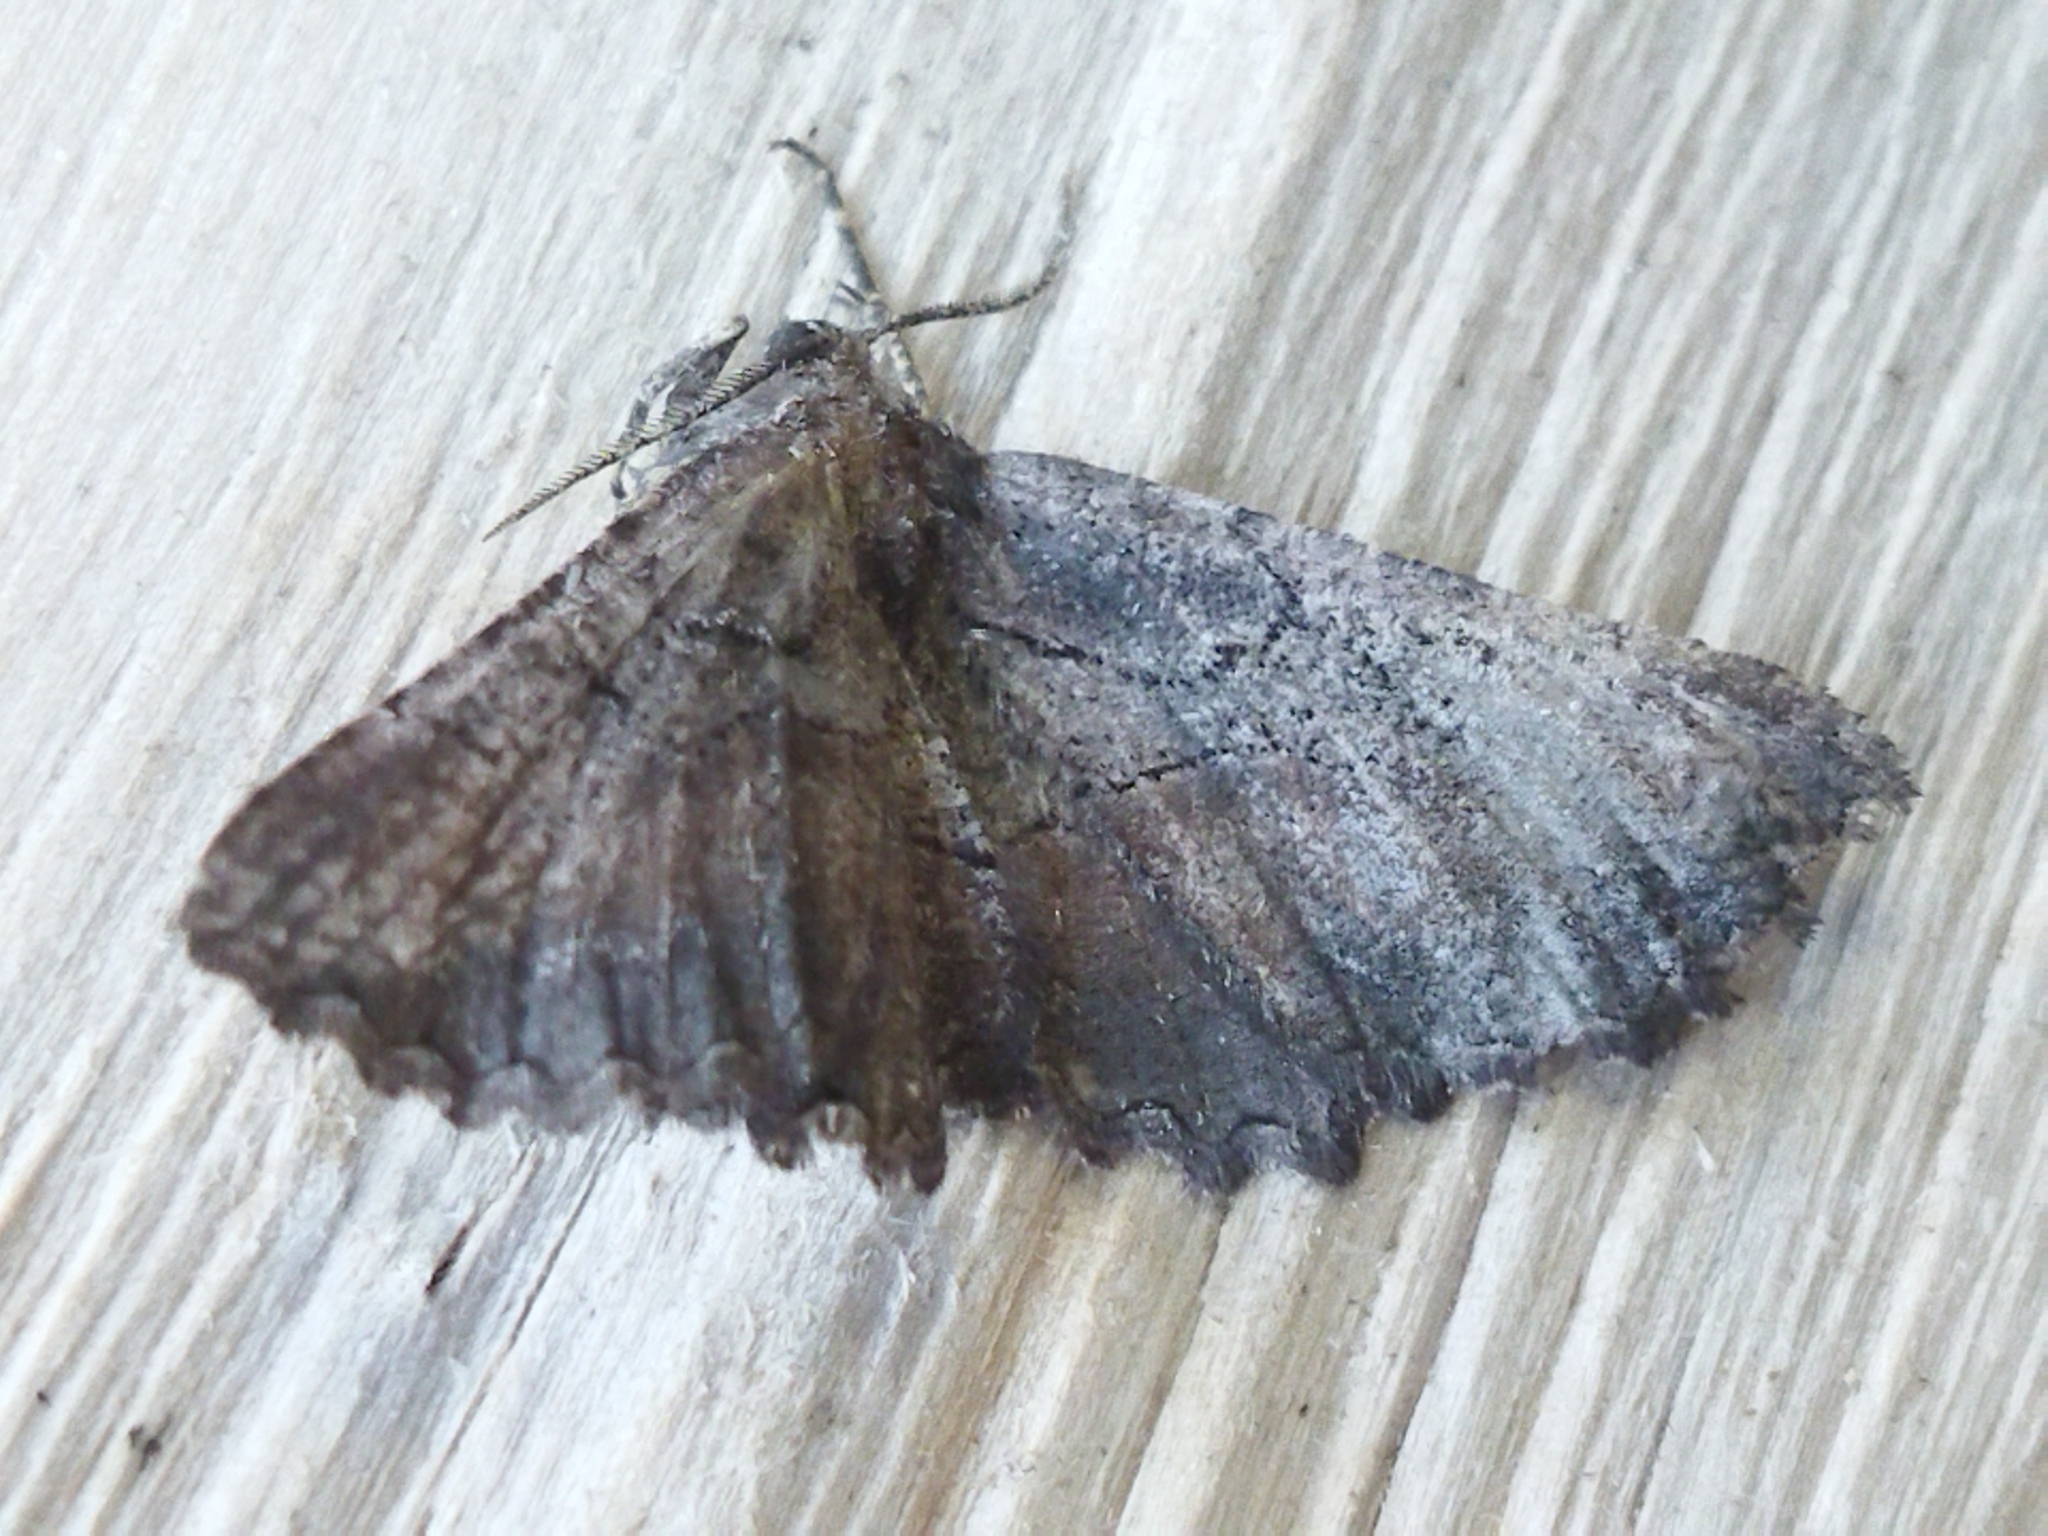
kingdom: Animalia
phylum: Arthropoda
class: Insecta
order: Lepidoptera
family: Geometridae
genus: Nychiodes
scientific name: Nychiodes waltheri
